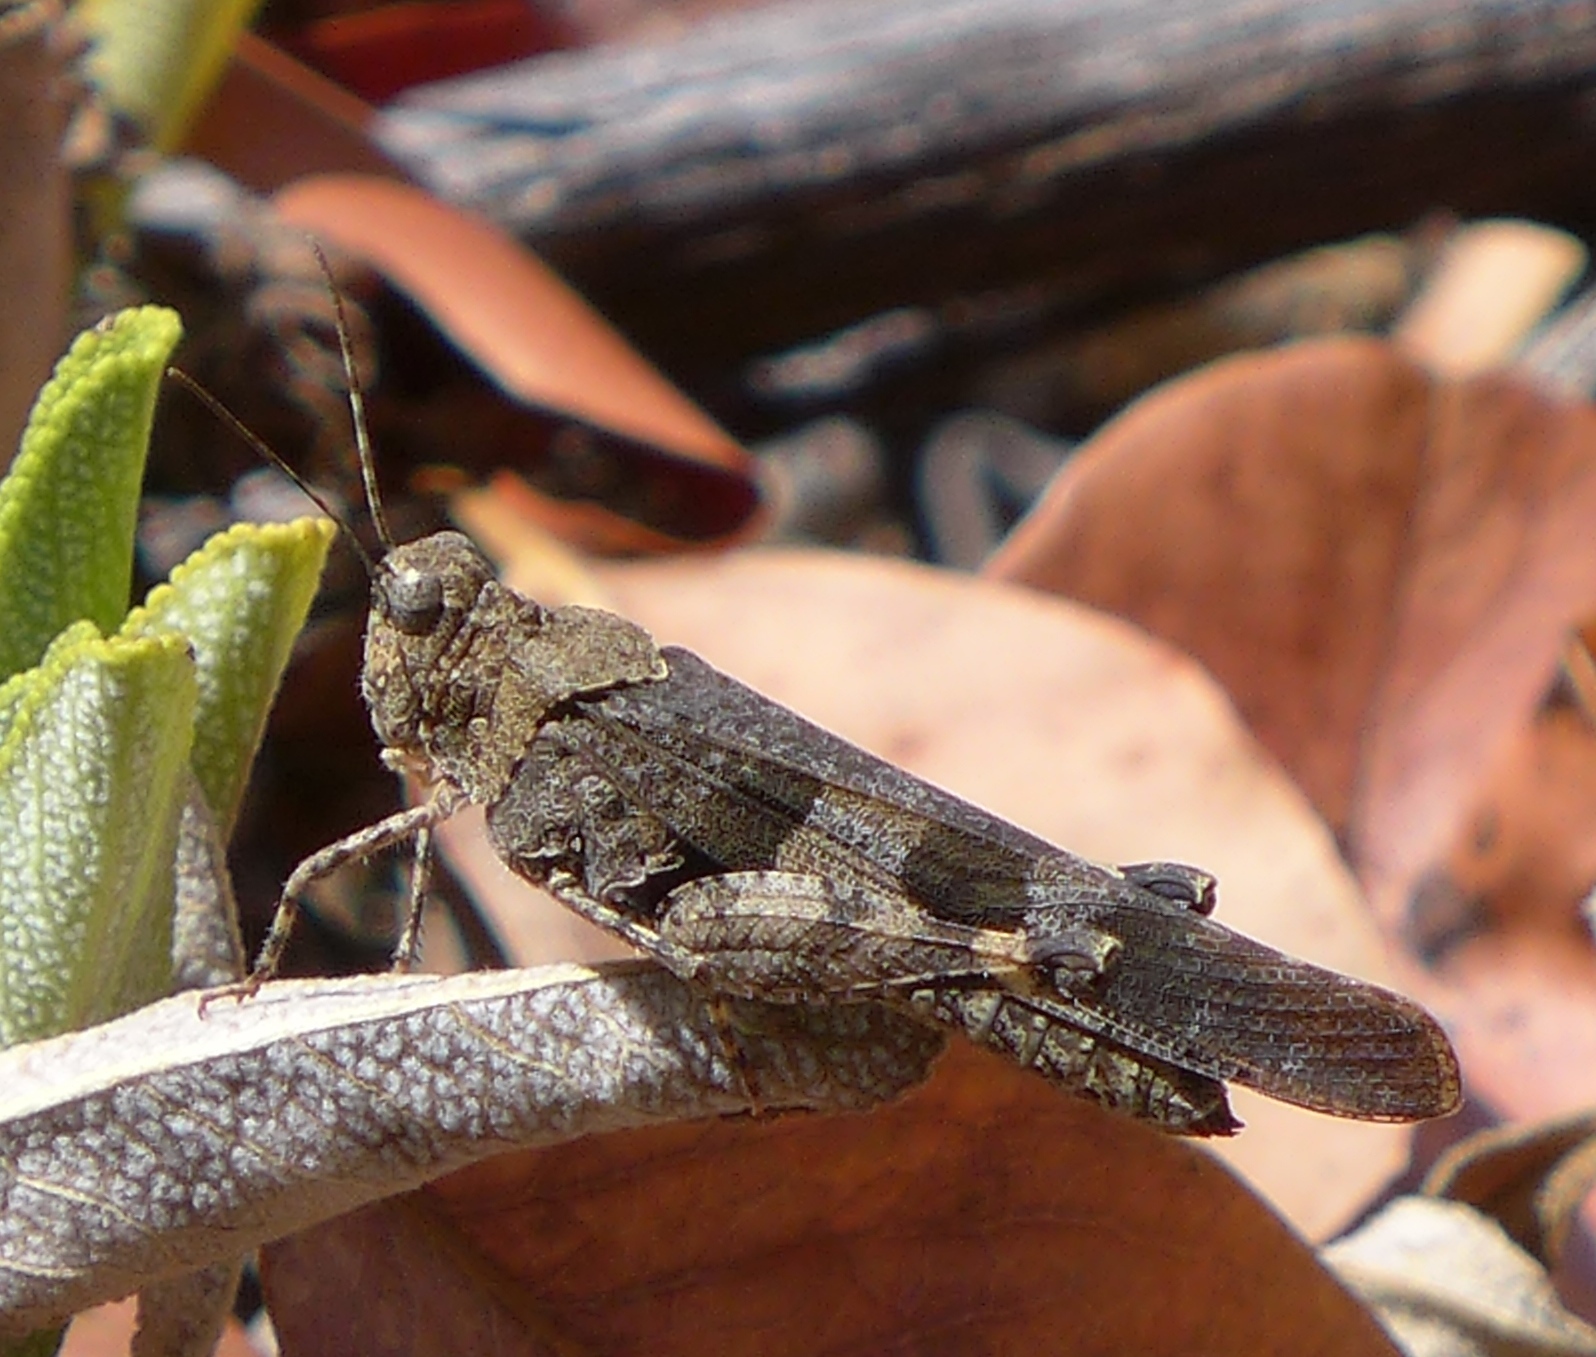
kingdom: Animalia
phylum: Arthropoda
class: Insecta
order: Orthoptera
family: Acrididae
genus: Trimerotropis
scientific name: Trimerotropis fontana
